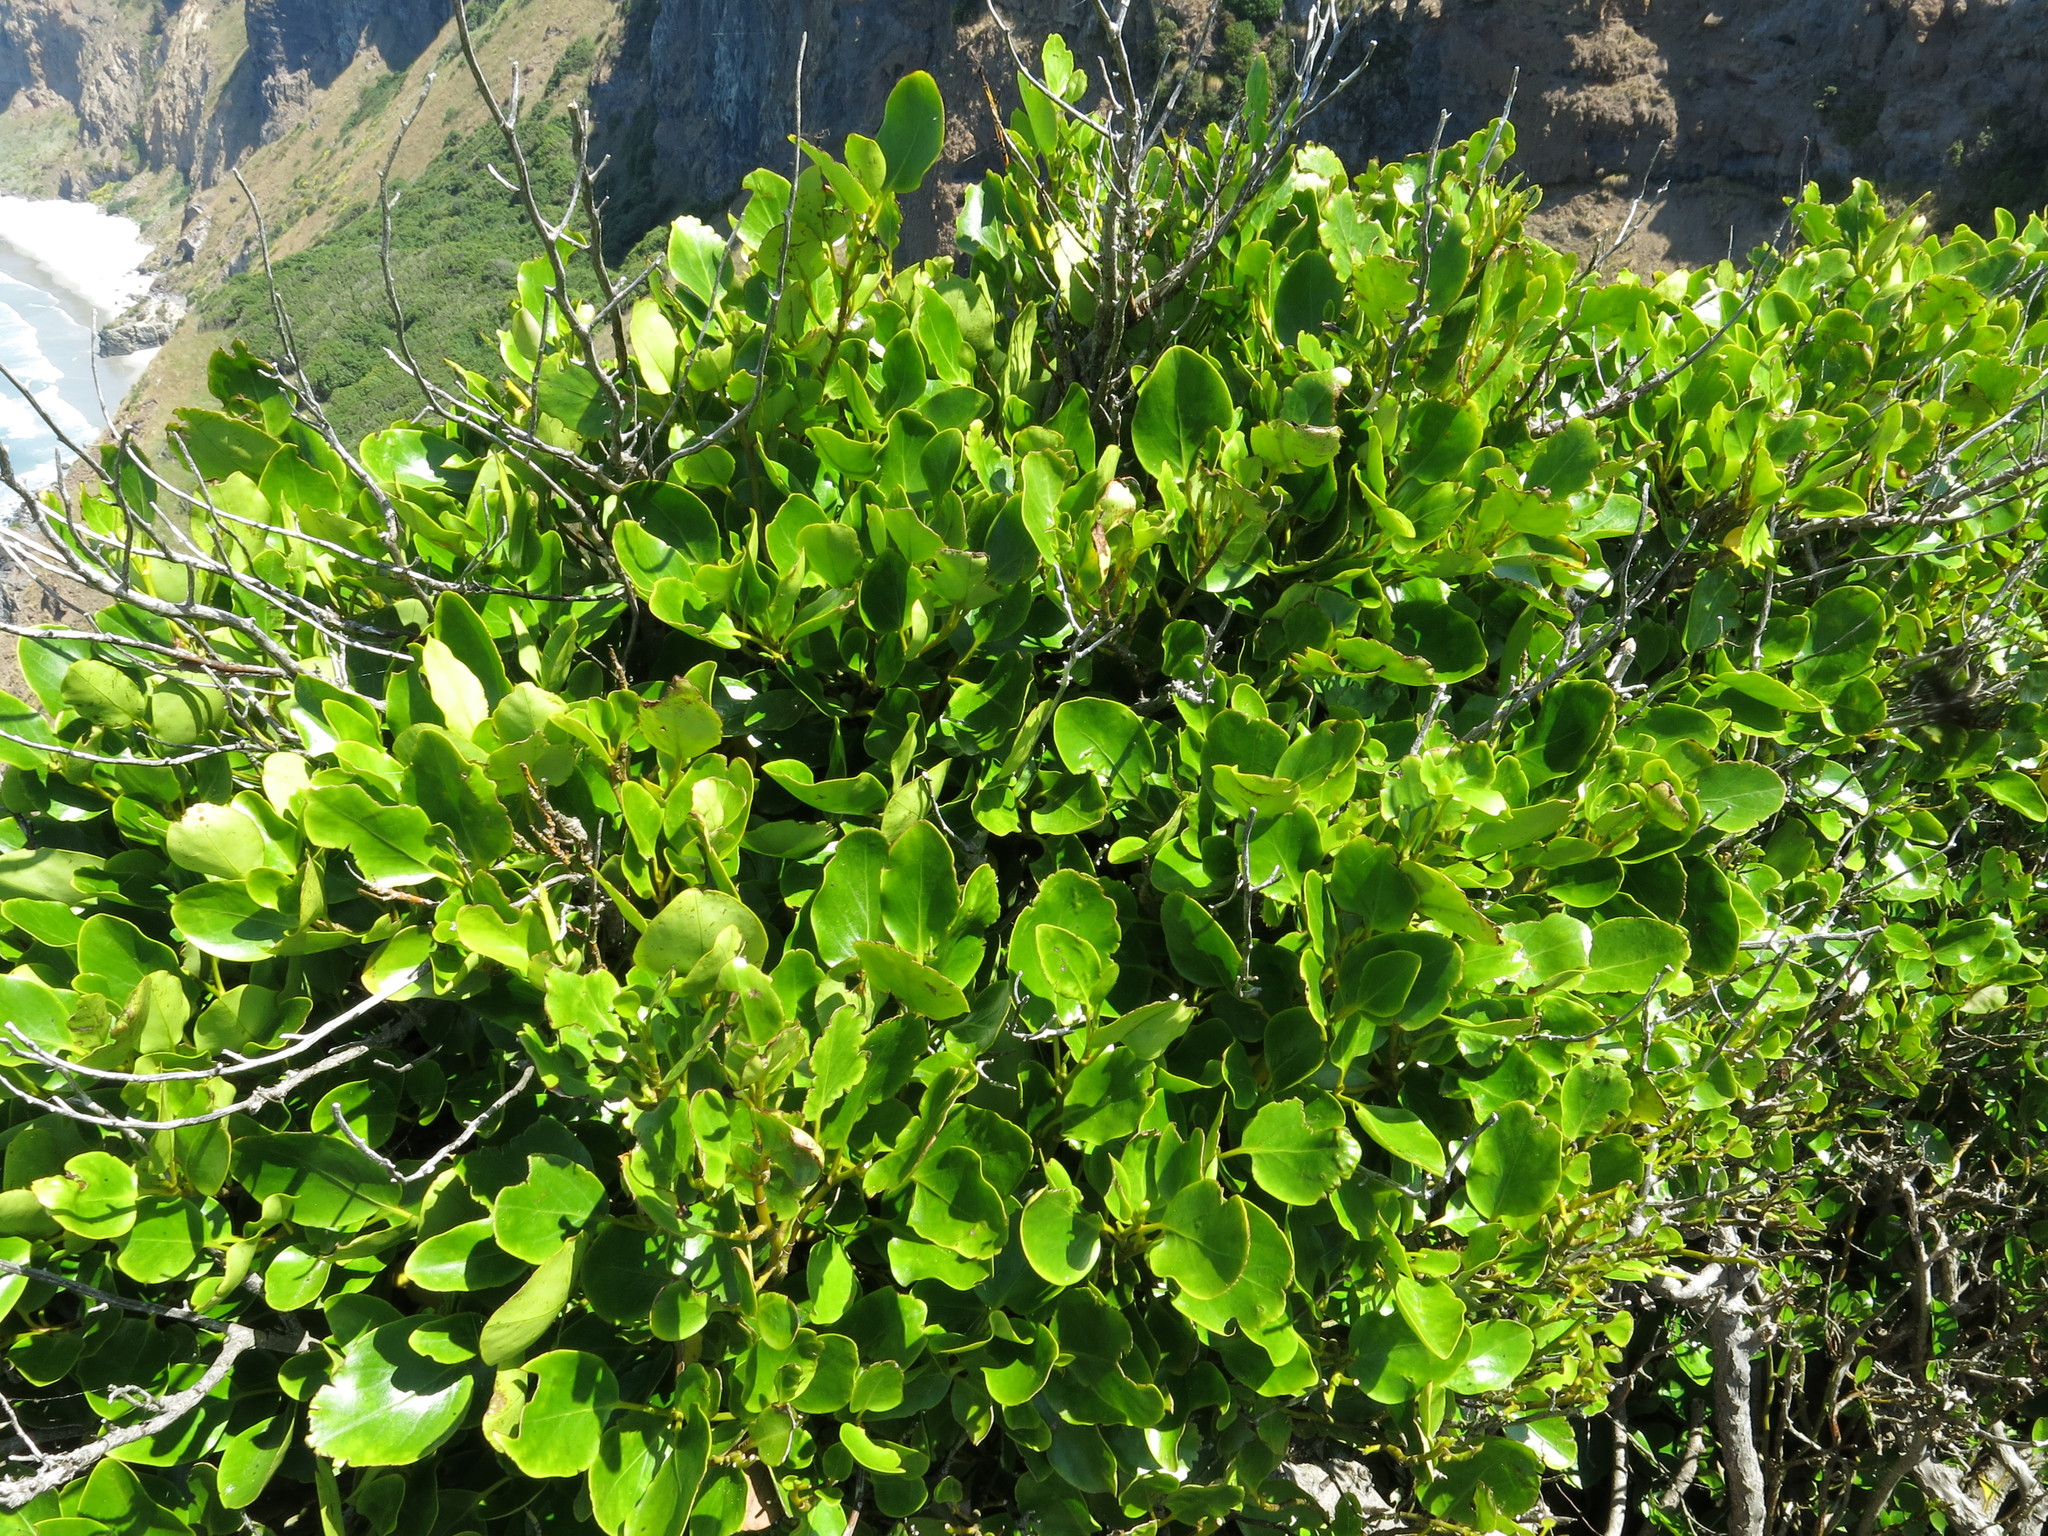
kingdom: Plantae
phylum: Tracheophyta
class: Magnoliopsida
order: Apiales
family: Griseliniaceae
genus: Griselinia
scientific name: Griselinia littoralis
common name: New zealand broadleaf
